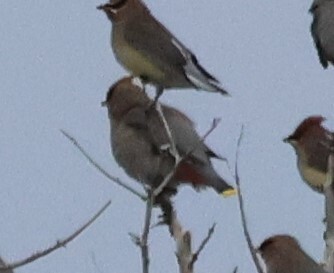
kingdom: Animalia
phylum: Chordata
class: Aves
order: Passeriformes
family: Bombycillidae
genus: Bombycilla
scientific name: Bombycilla garrulus
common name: Bohemian waxwing
